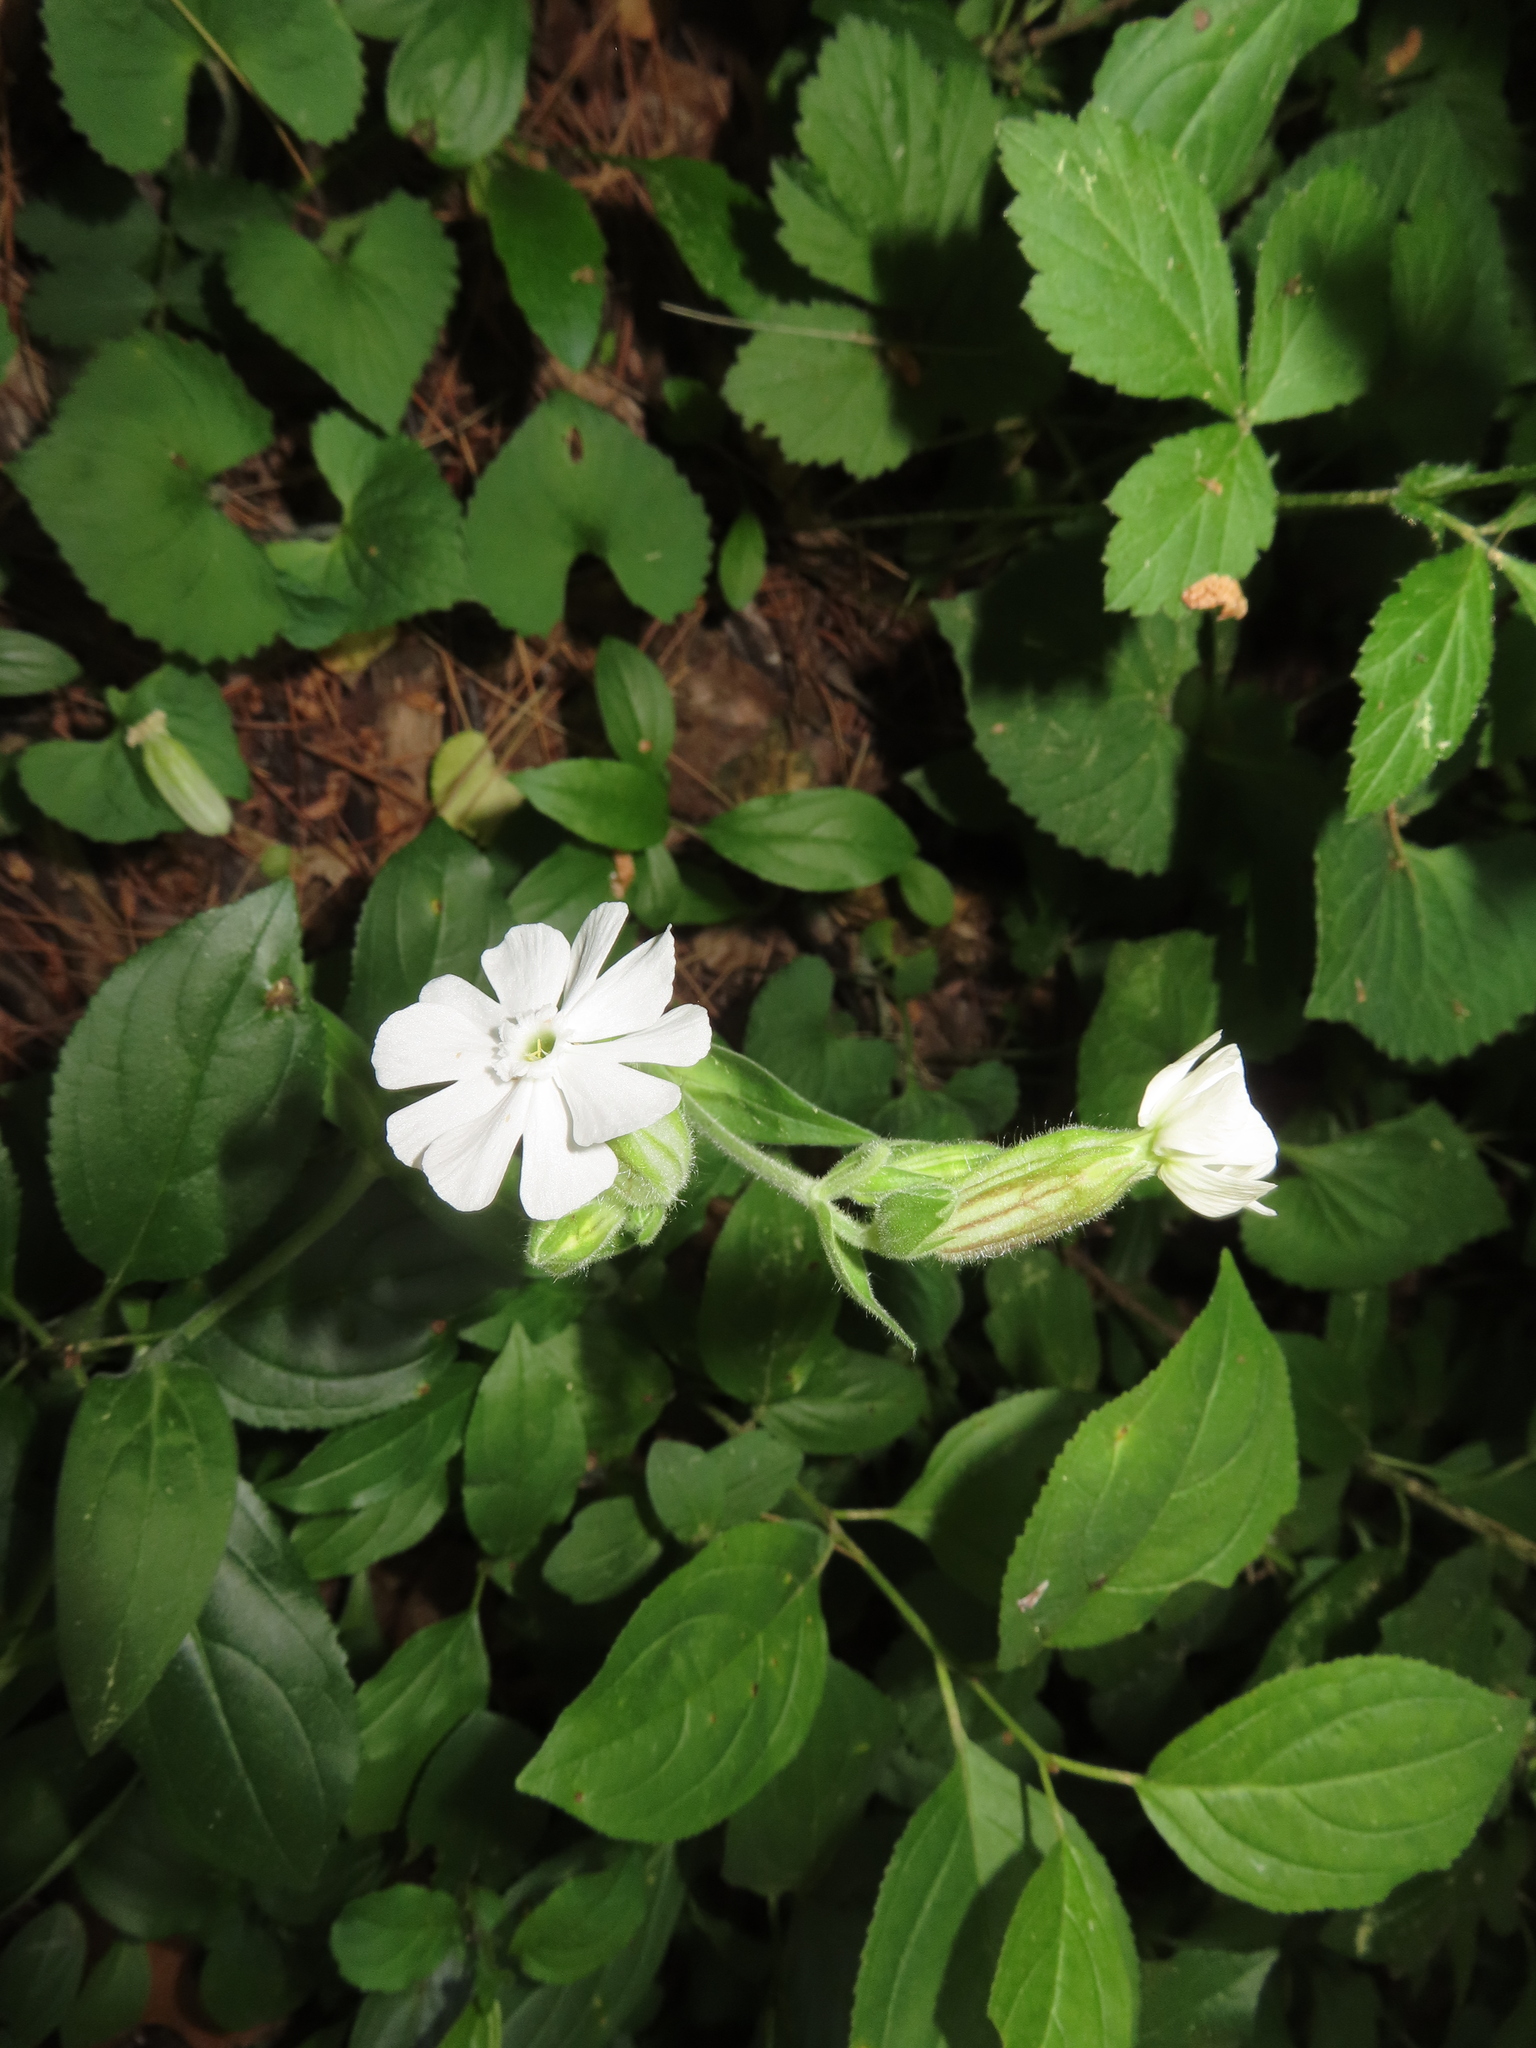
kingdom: Plantae
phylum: Tracheophyta
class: Magnoliopsida
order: Caryophyllales
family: Caryophyllaceae
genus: Silene
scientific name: Silene latifolia
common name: White campion
